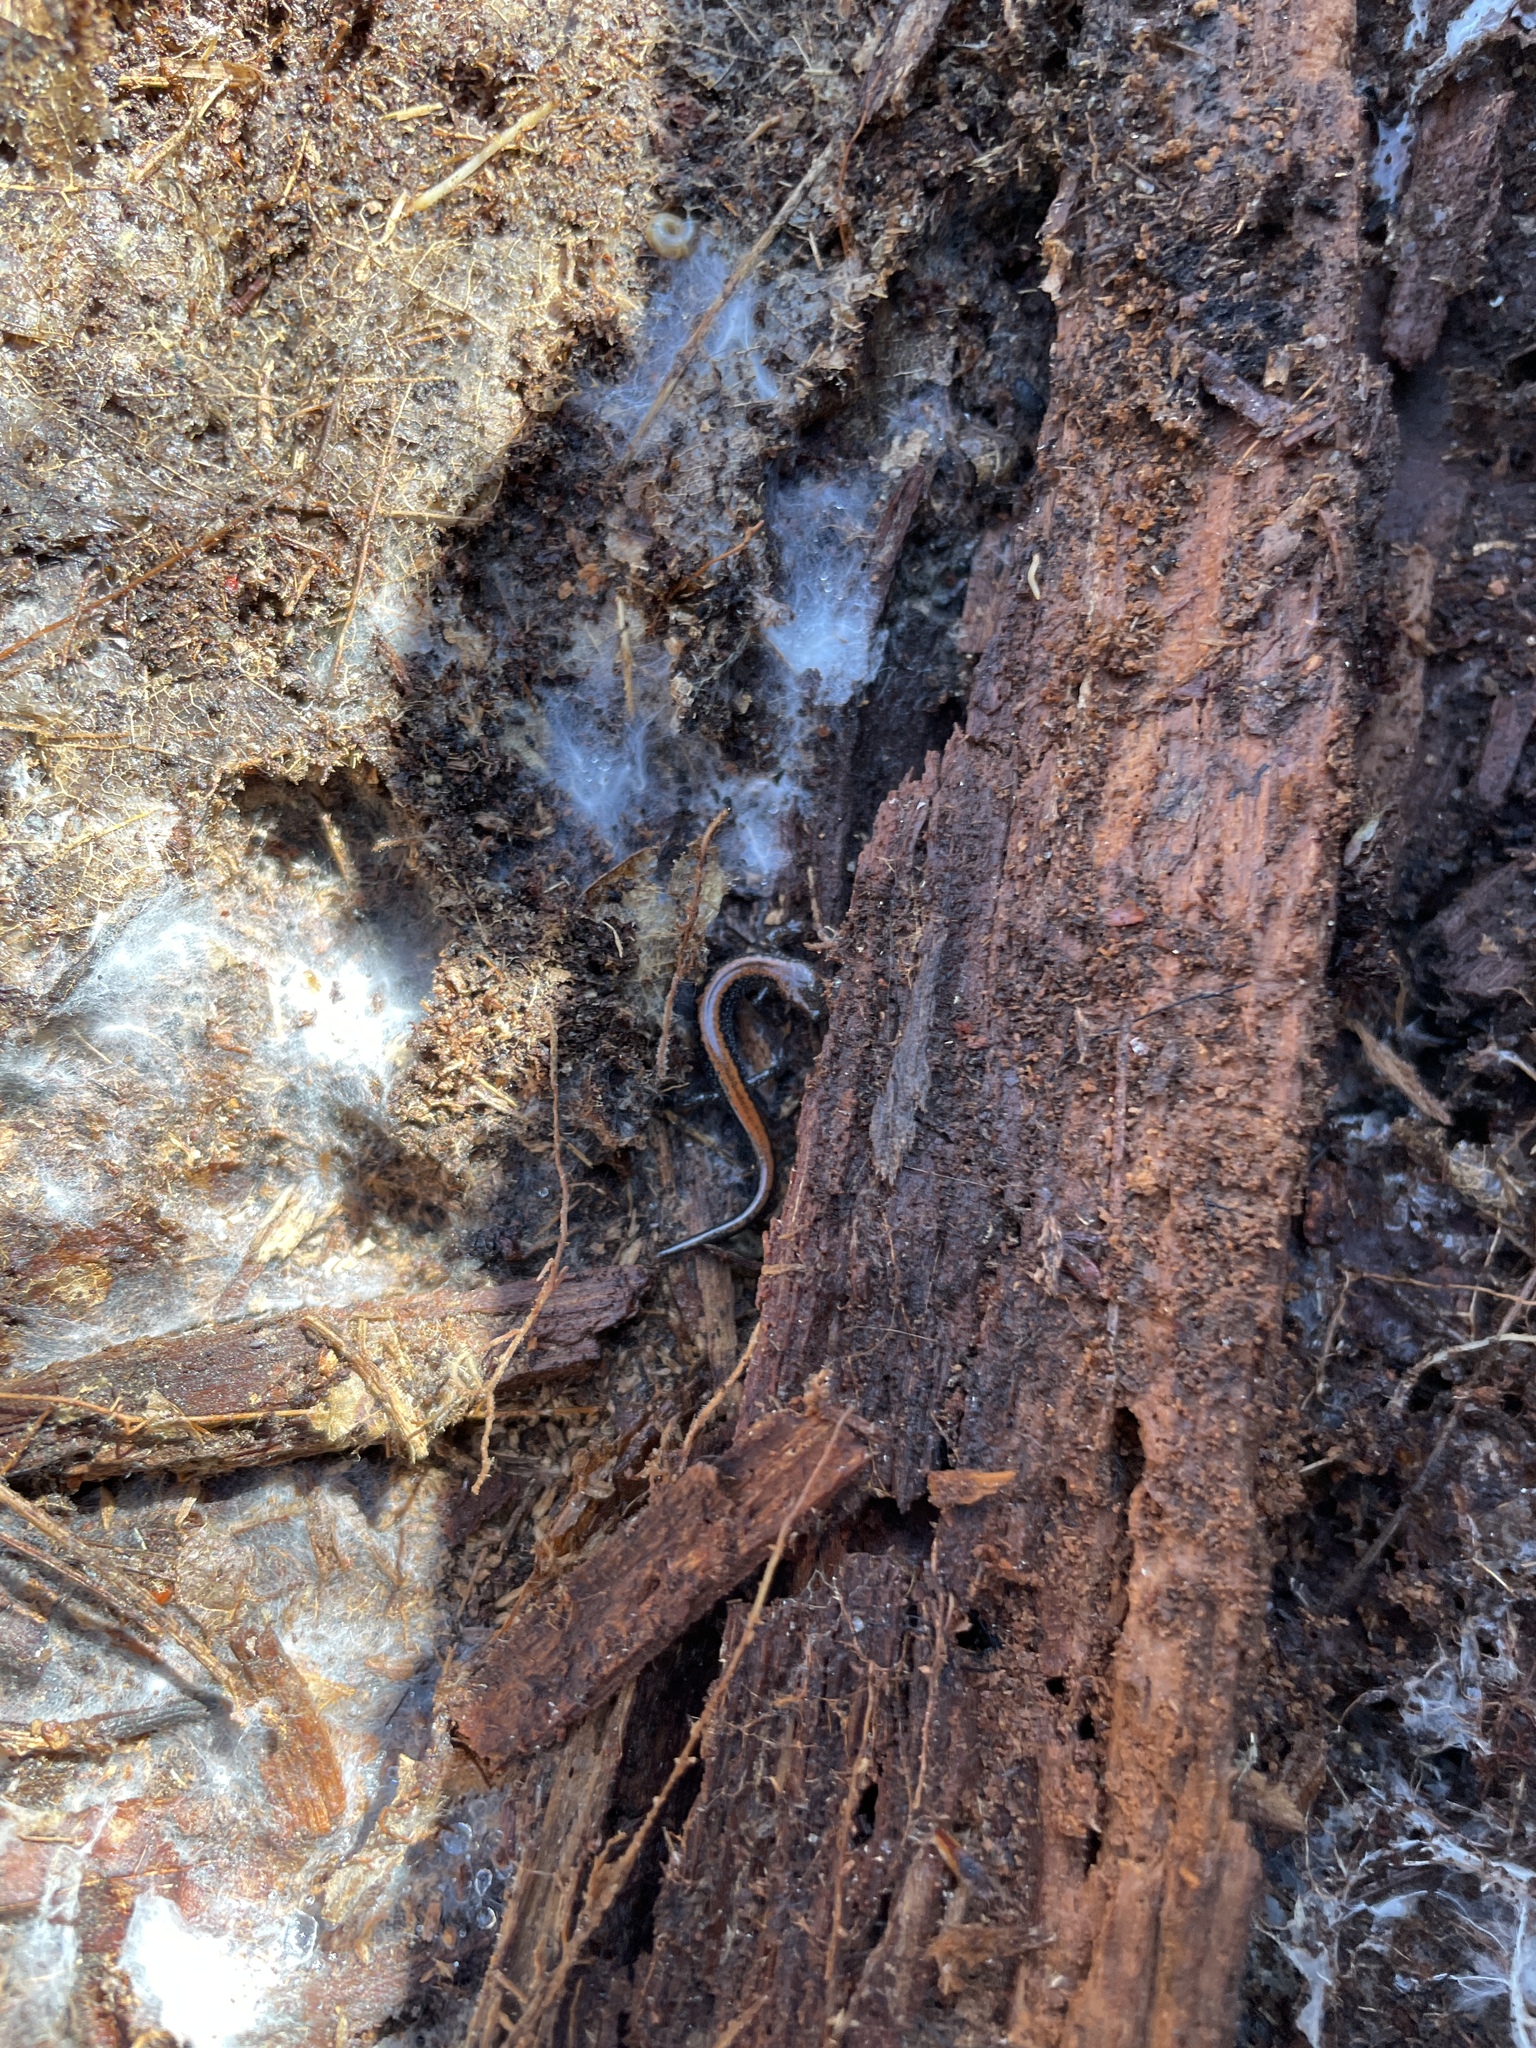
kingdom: Animalia
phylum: Chordata
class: Amphibia
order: Caudata
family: Plethodontidae
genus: Plethodon
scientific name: Plethodon cinereus
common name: Redback salamander
